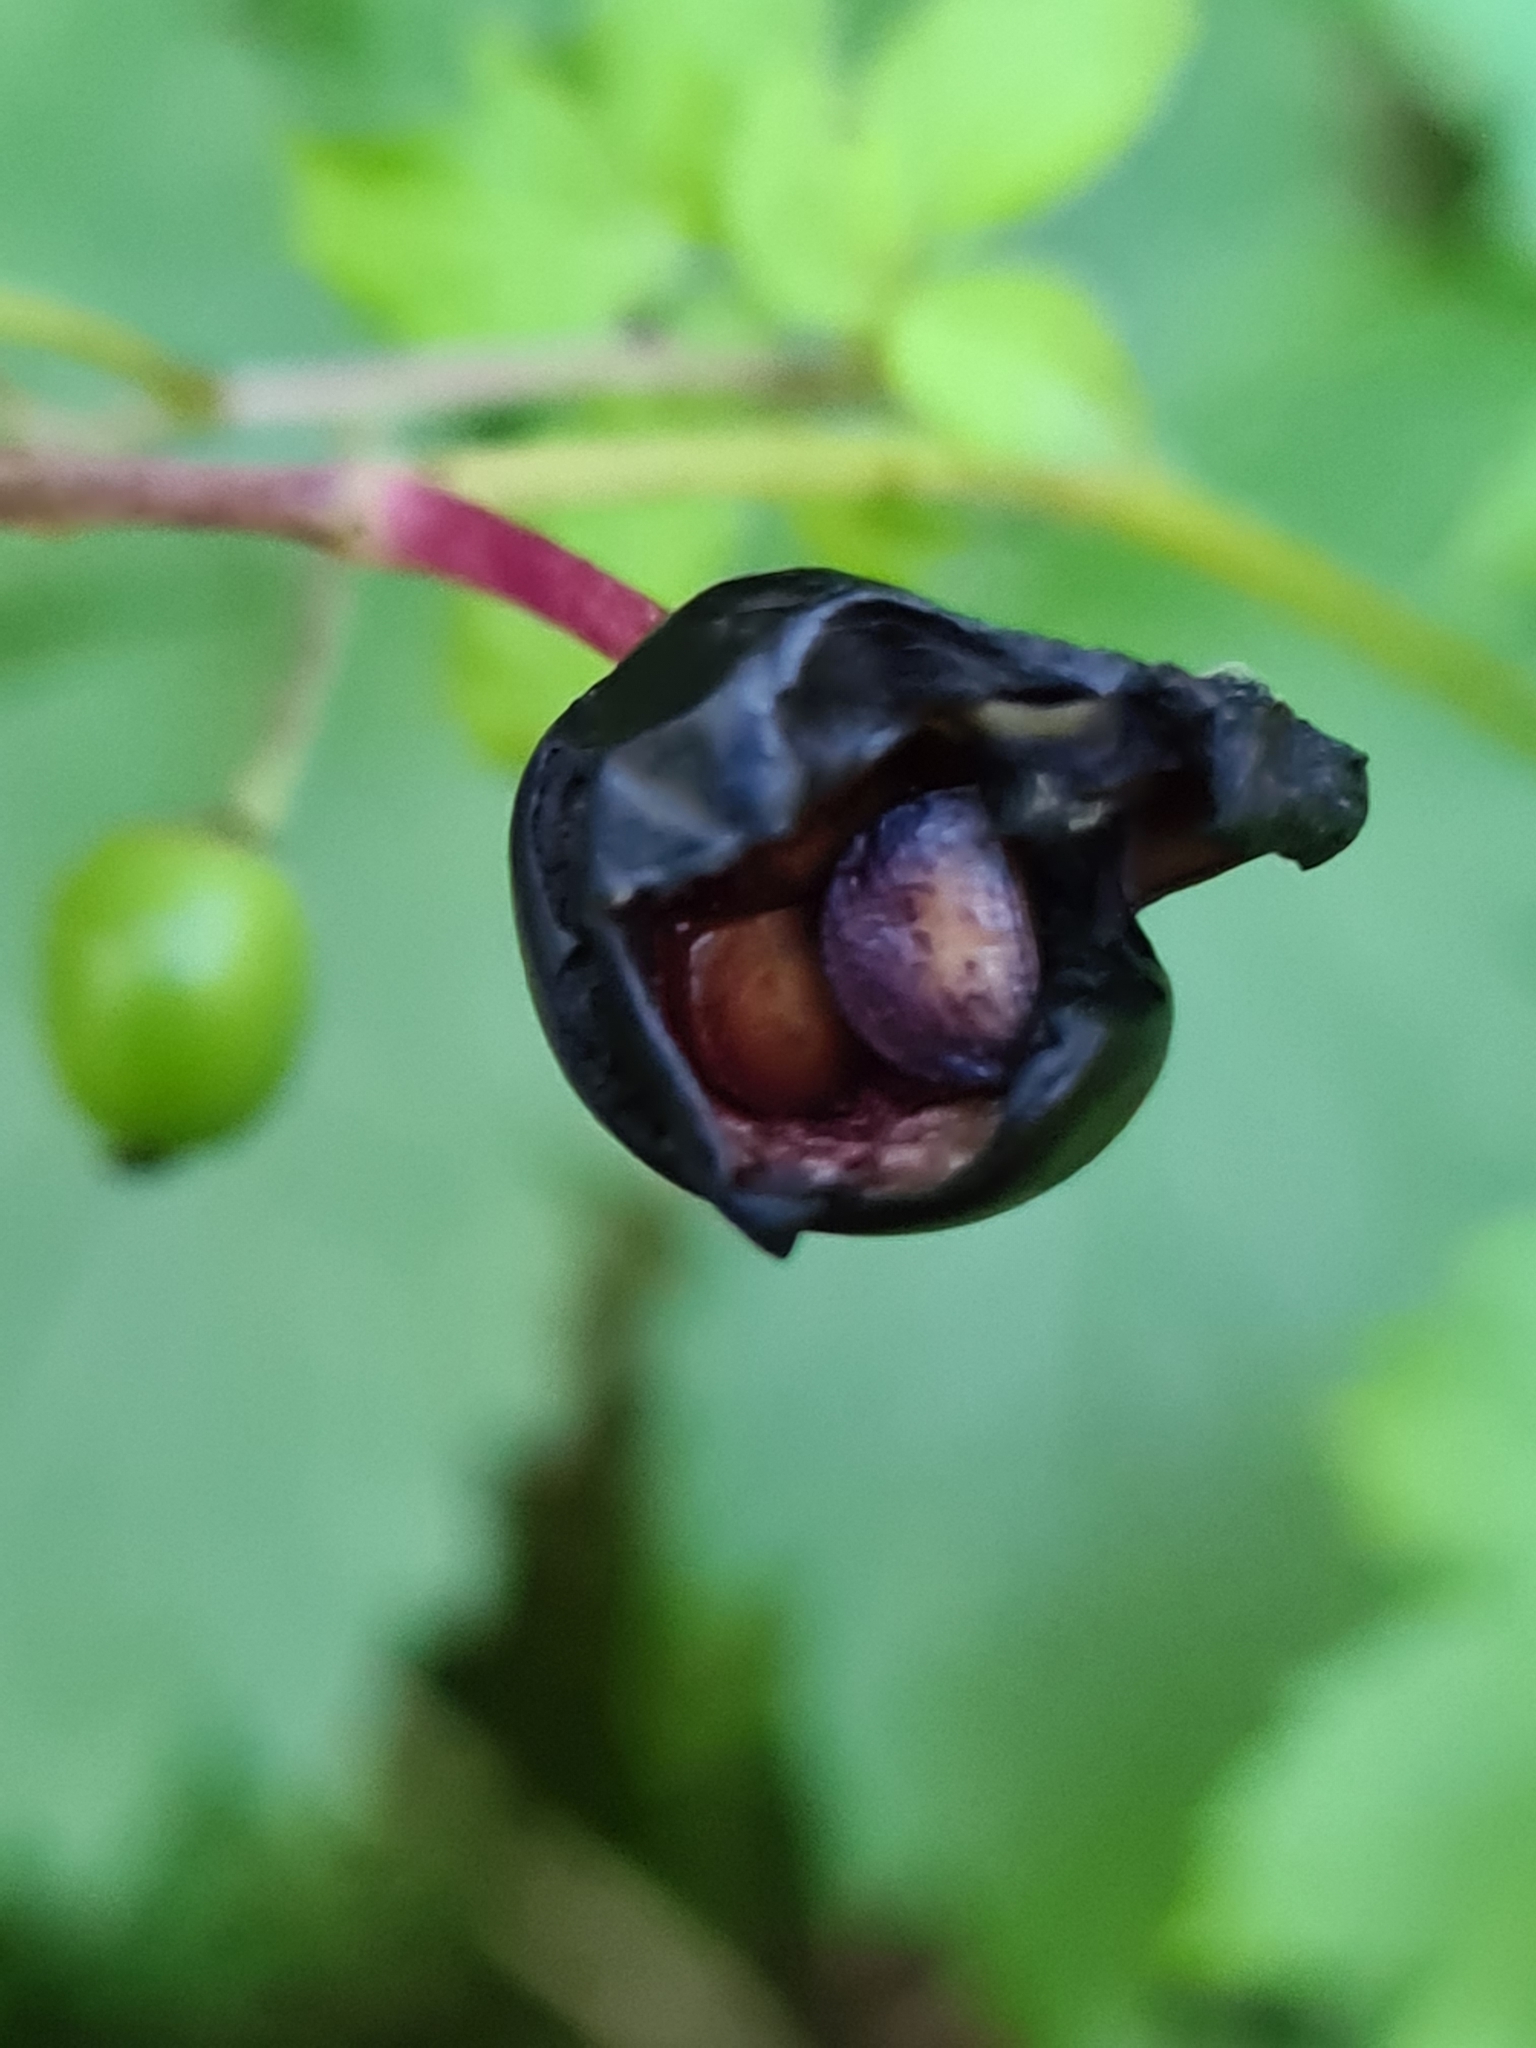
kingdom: Plantae
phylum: Tracheophyta
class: Magnoliopsida
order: Ranunculales
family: Ranunculaceae
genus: Actaea
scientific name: Actaea spicata
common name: Baneberry
